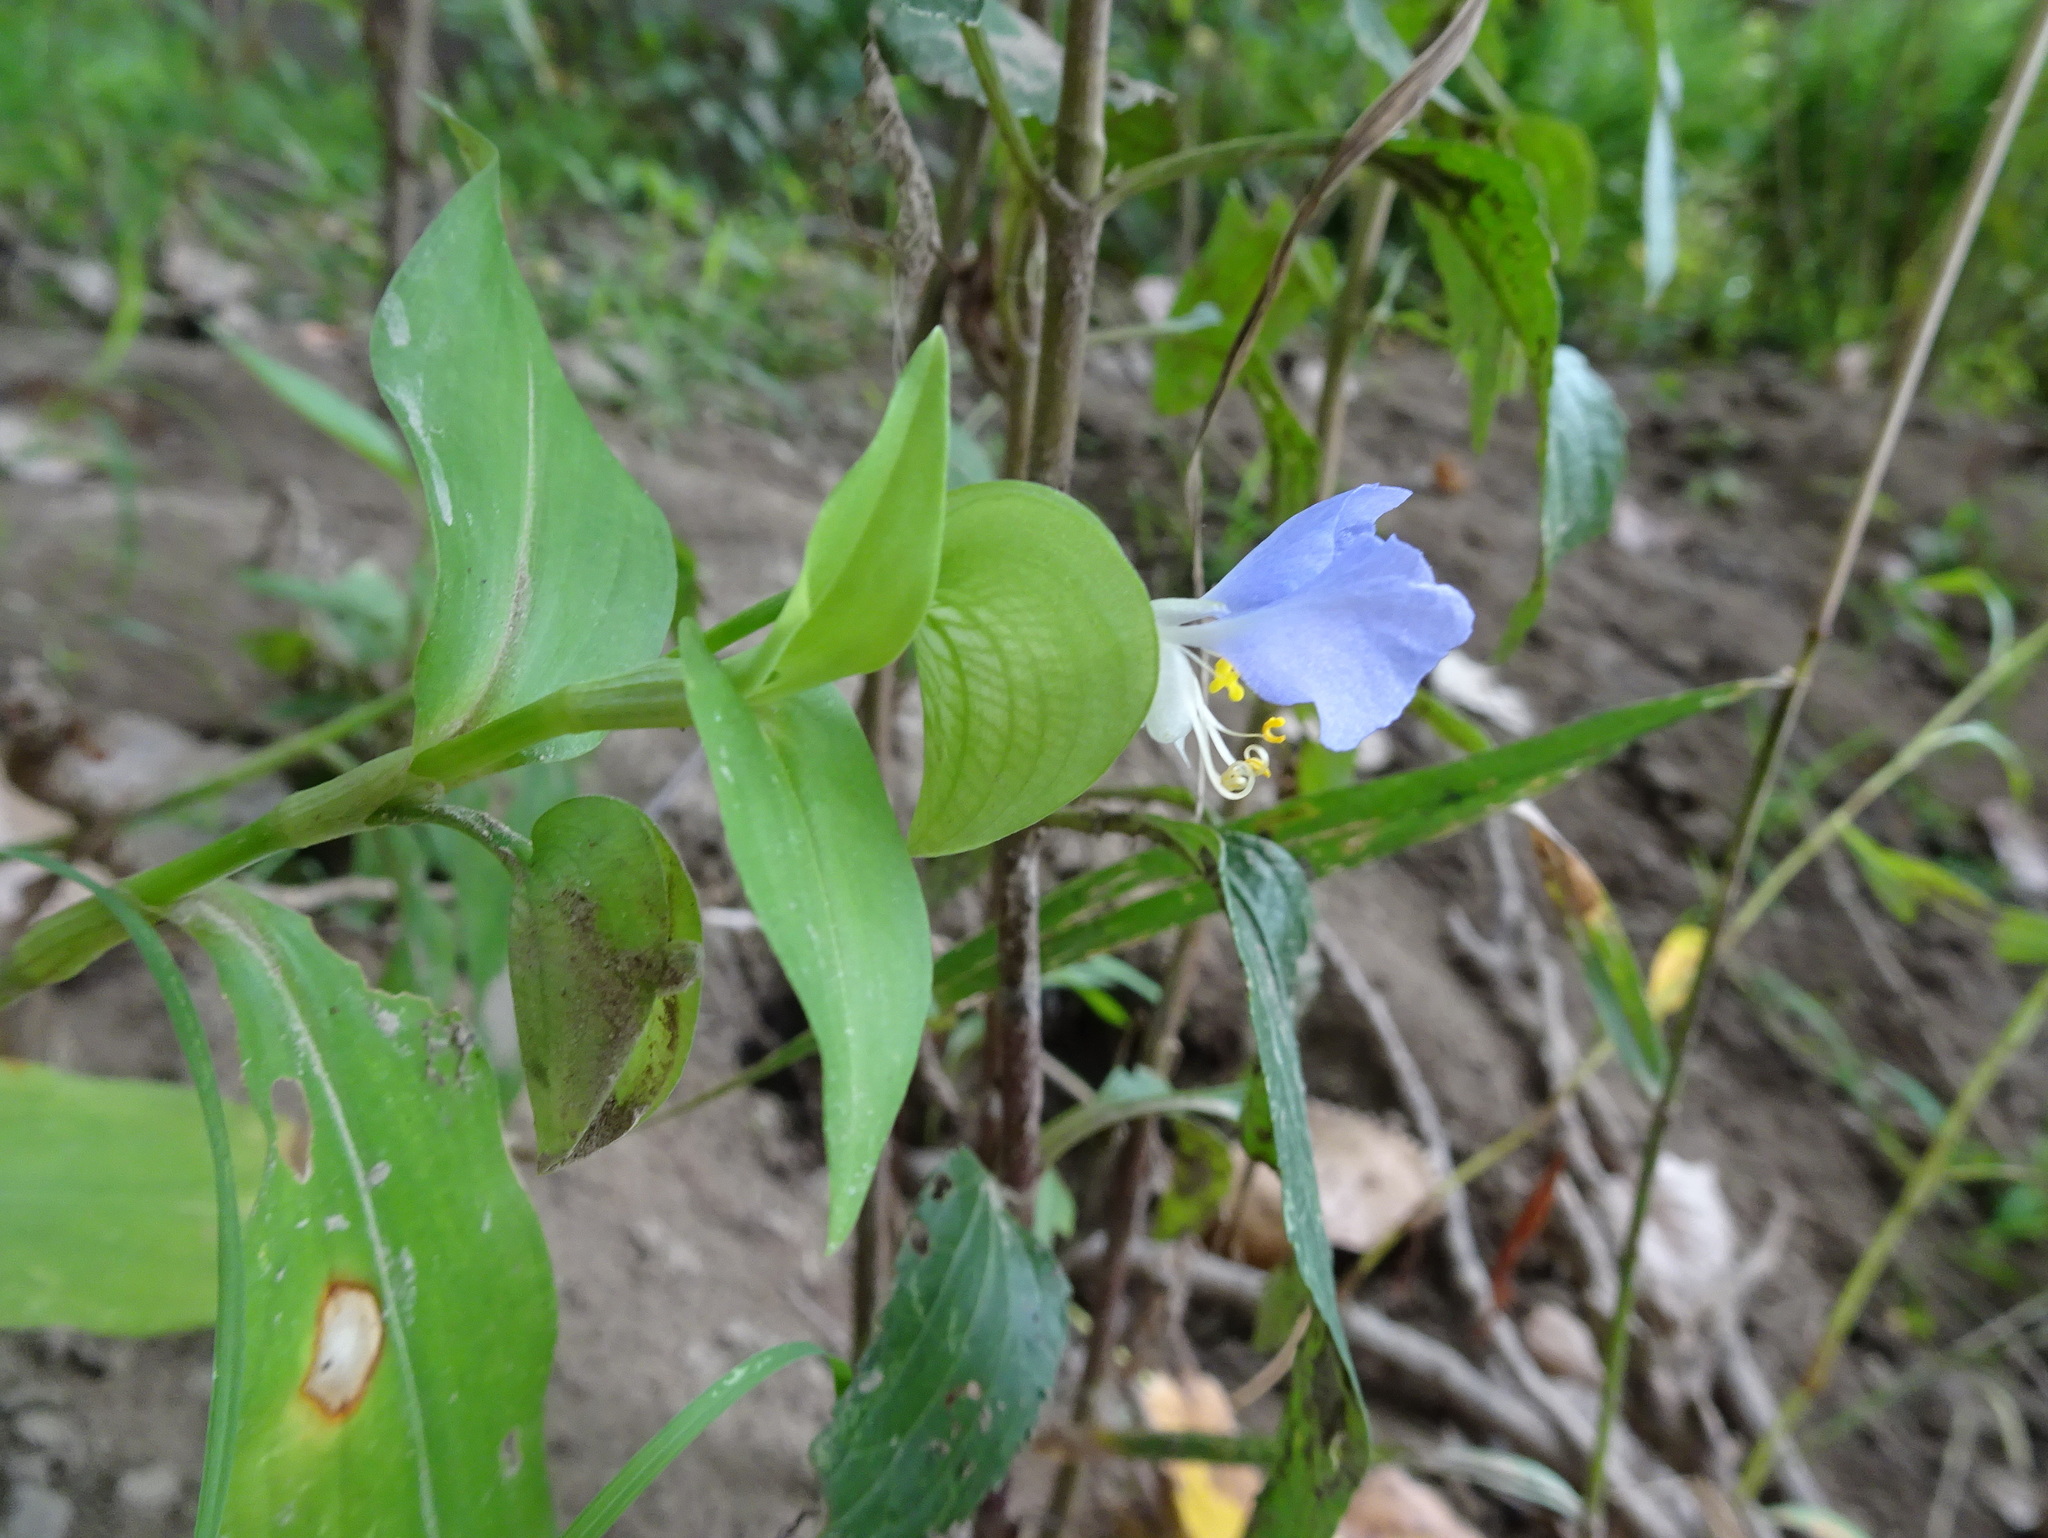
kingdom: Plantae
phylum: Tracheophyta
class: Liliopsida
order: Commelinales
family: Commelinaceae
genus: Commelina
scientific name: Commelina erecta
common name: Blousel blommetjie
